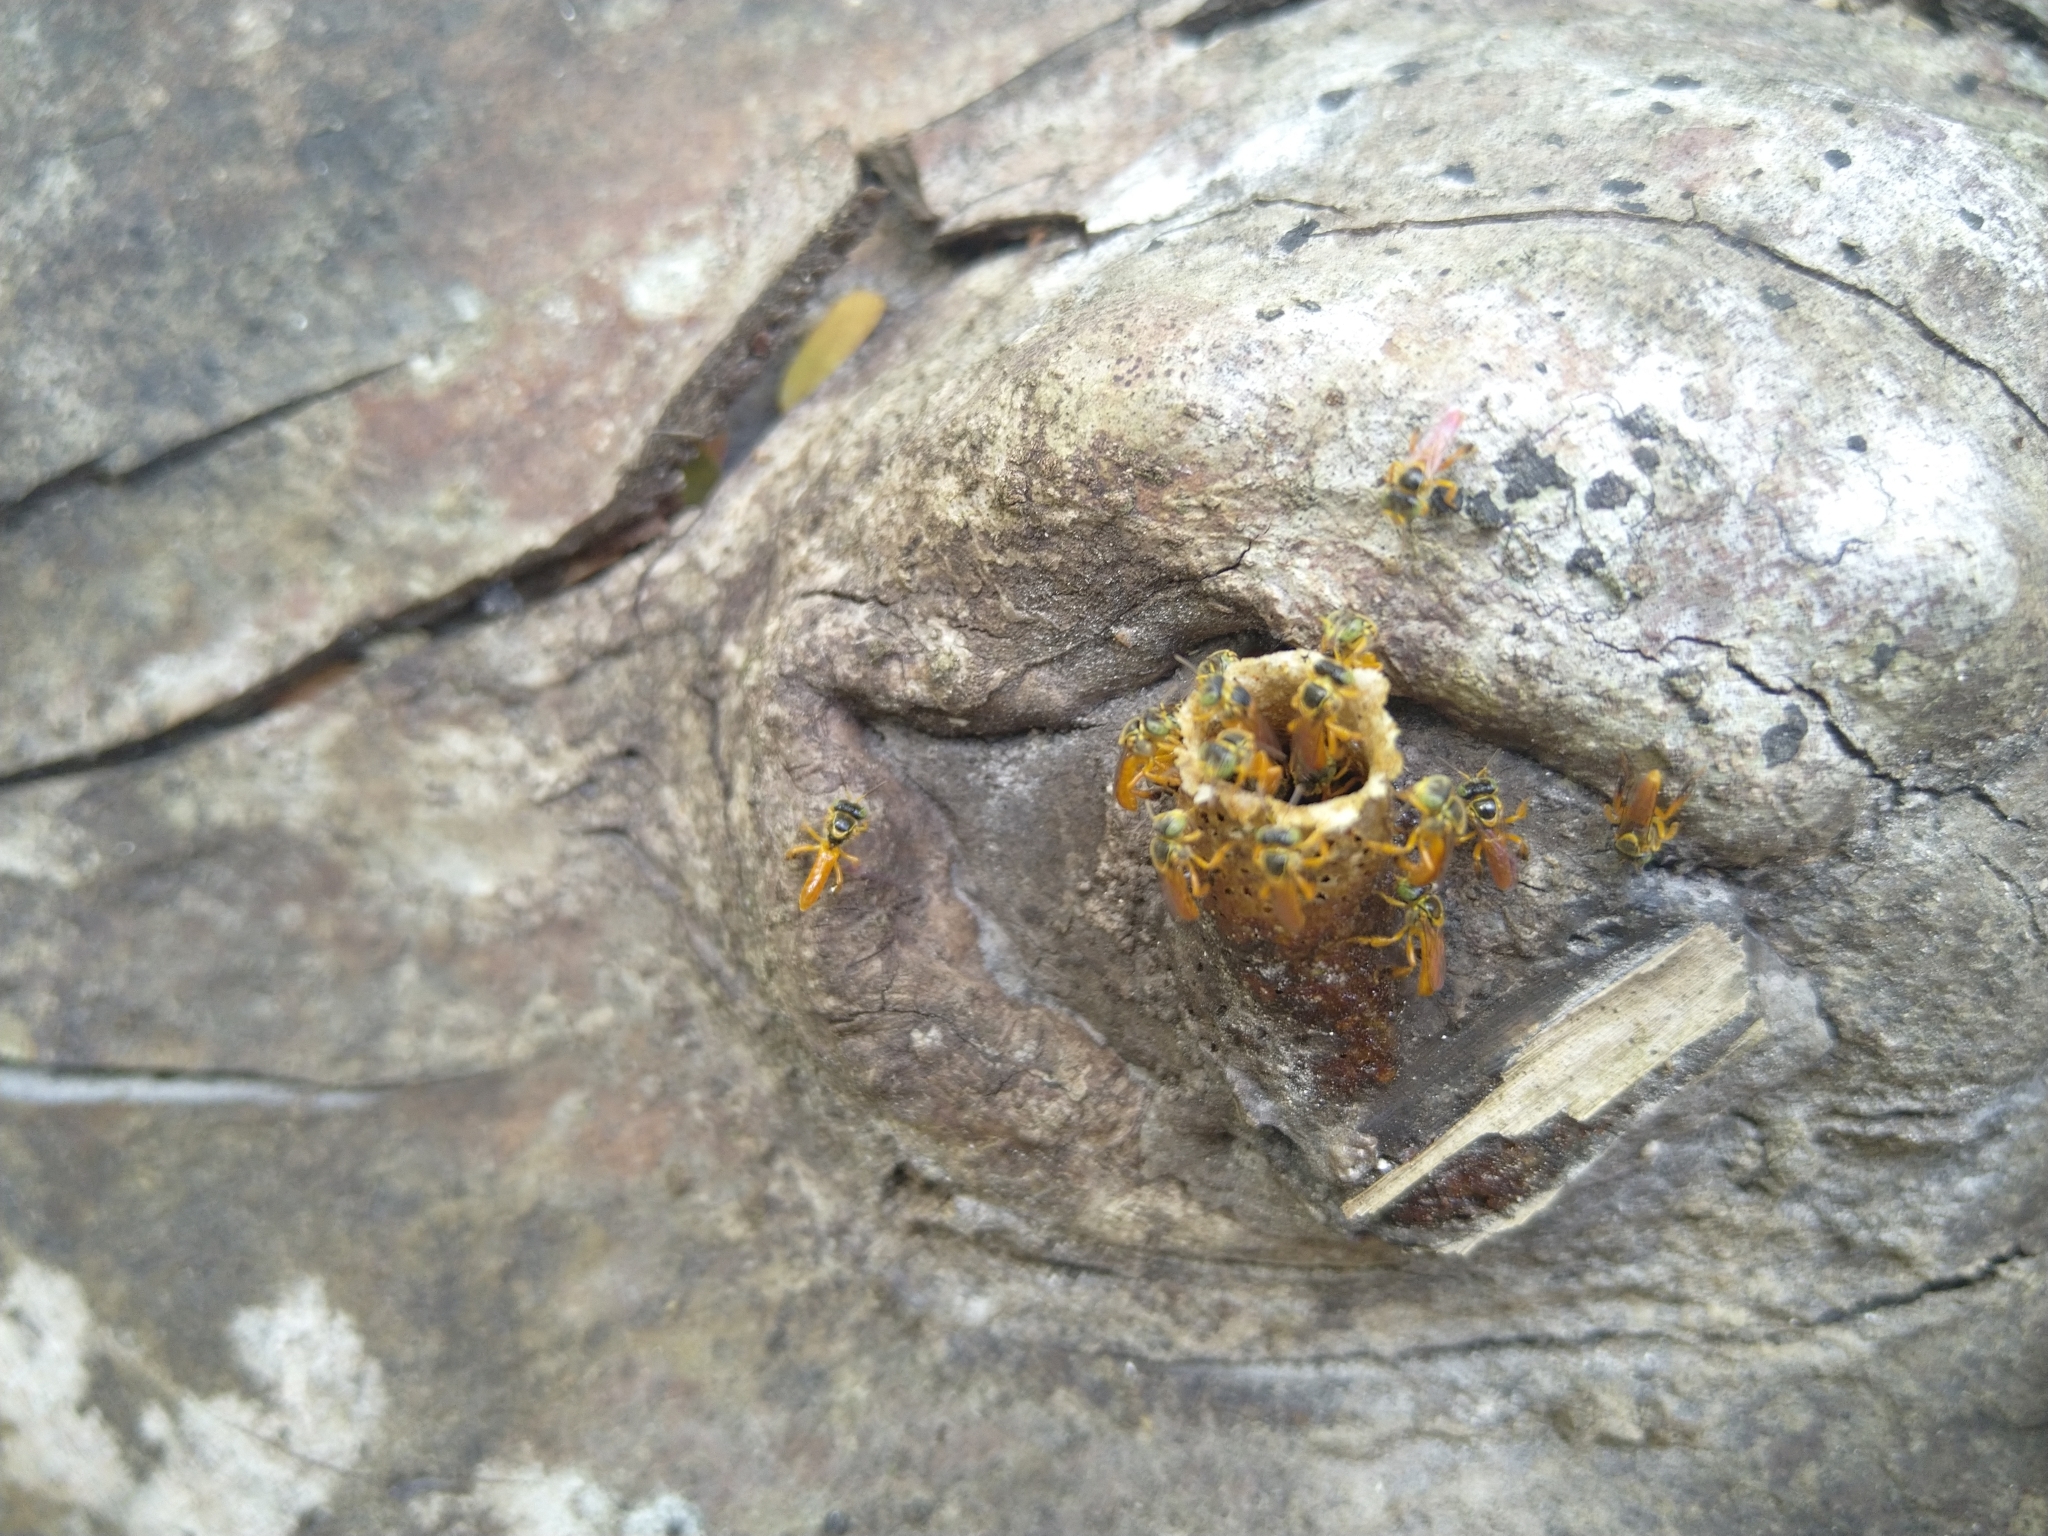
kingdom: Animalia
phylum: Arthropoda
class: Insecta
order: Hymenoptera
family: Apidae
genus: Tetragonisca
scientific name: Tetragonisca angustula
